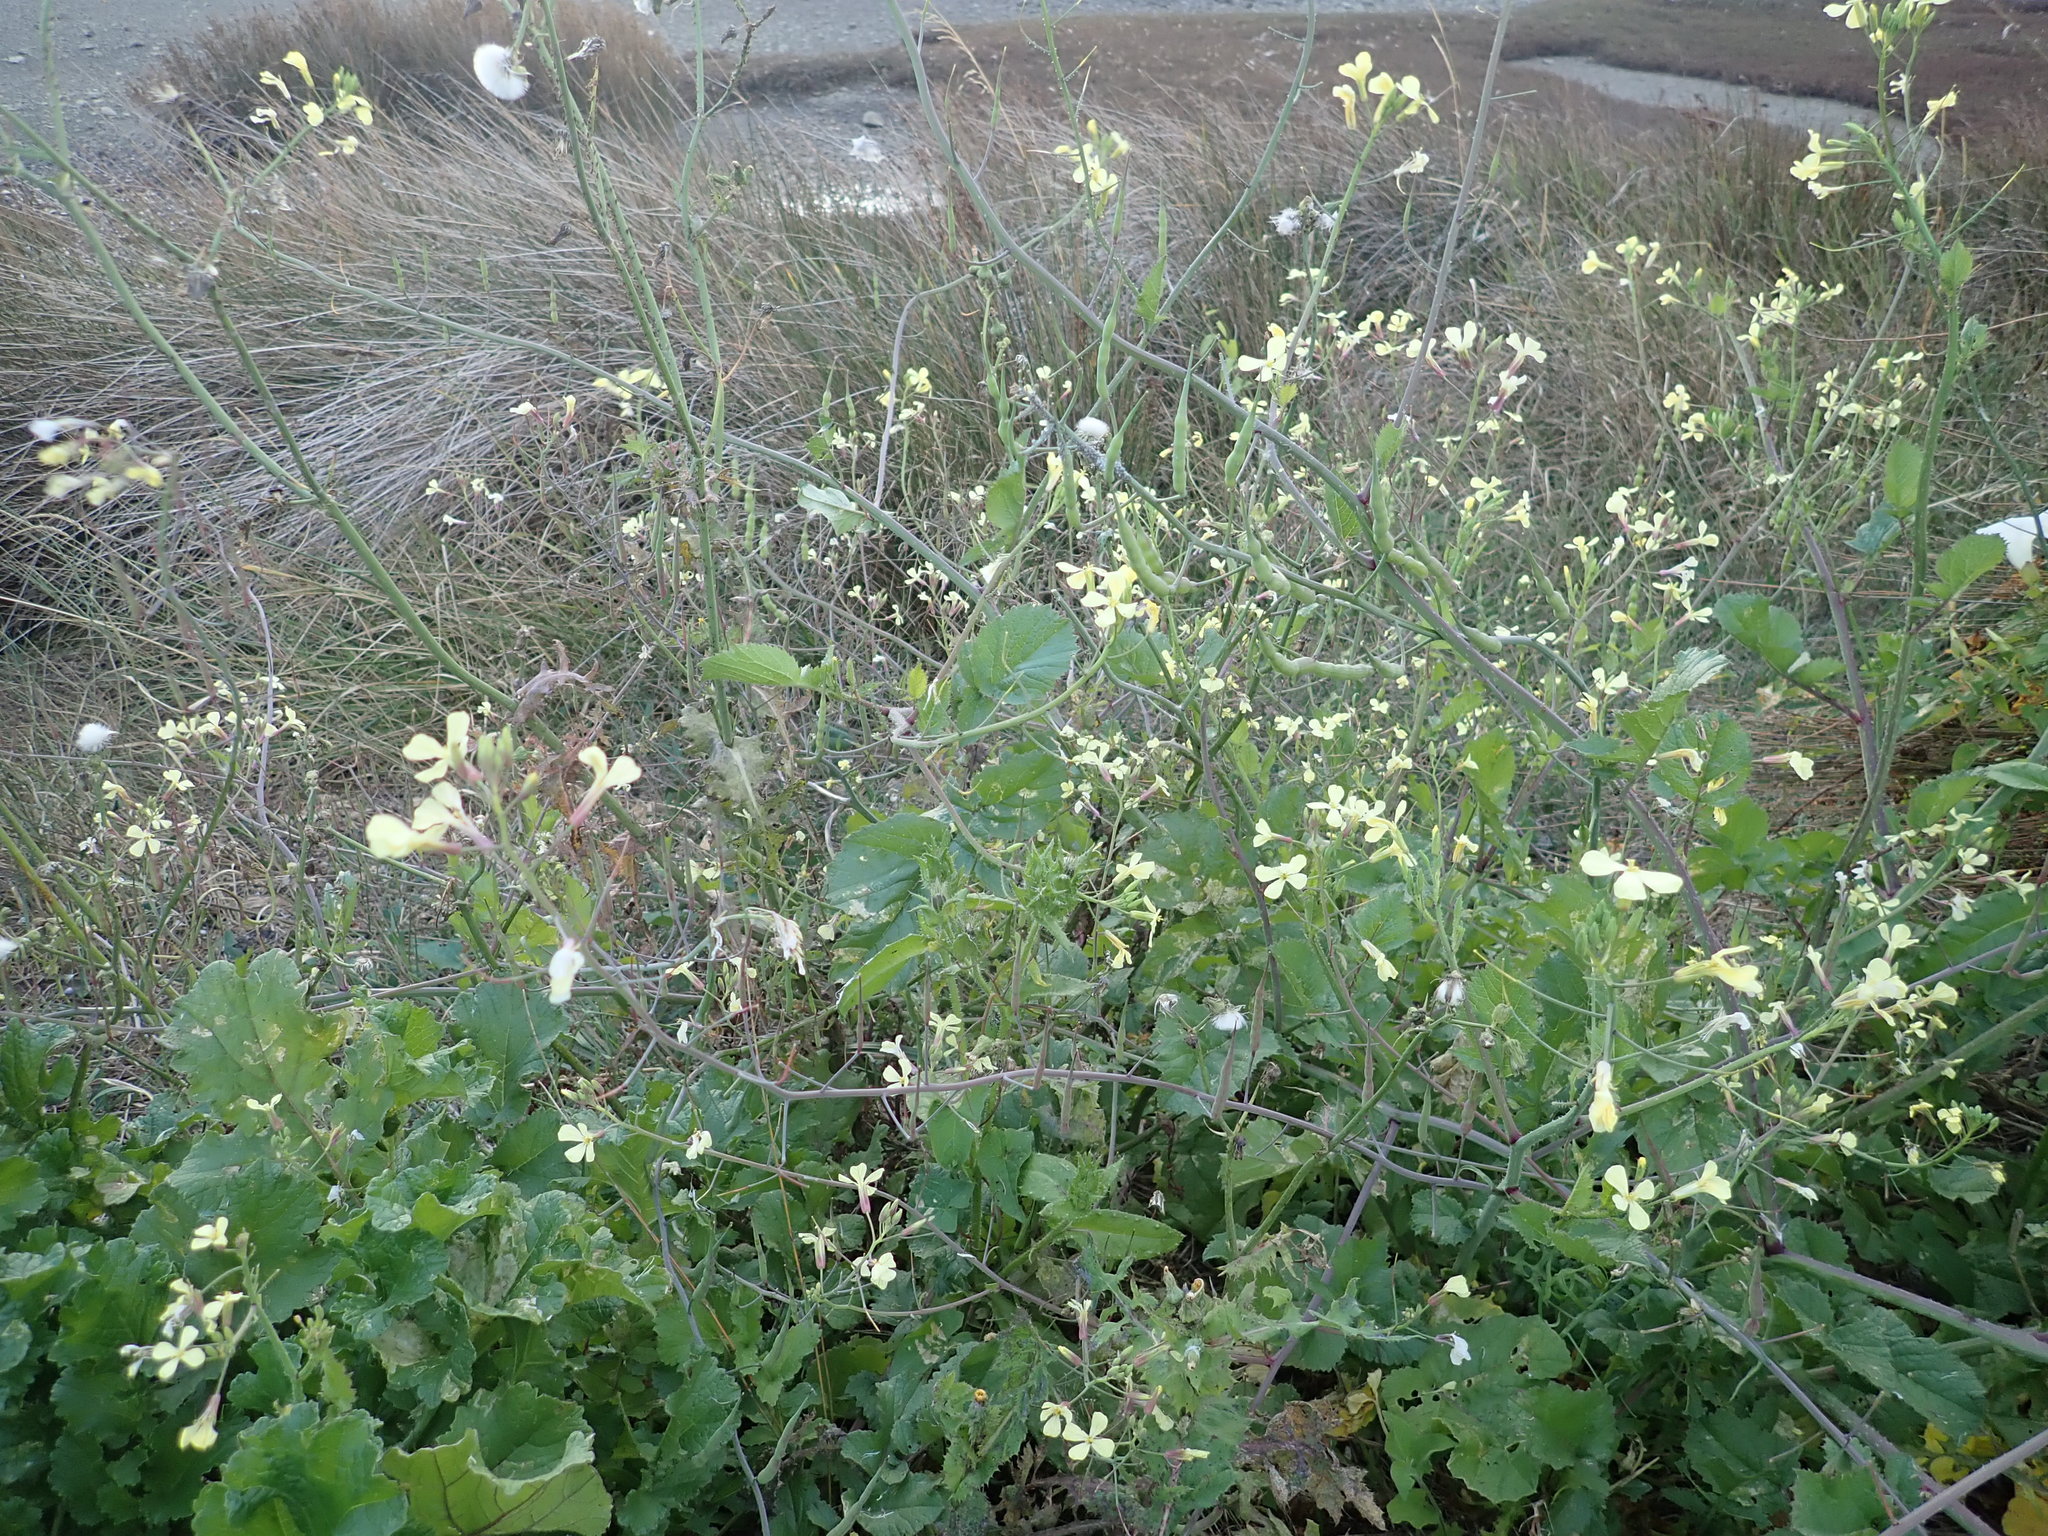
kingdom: Plantae
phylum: Tracheophyta
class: Magnoliopsida
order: Brassicales
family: Brassicaceae
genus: Raphanus
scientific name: Raphanus raphanistrum
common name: Wild radish
